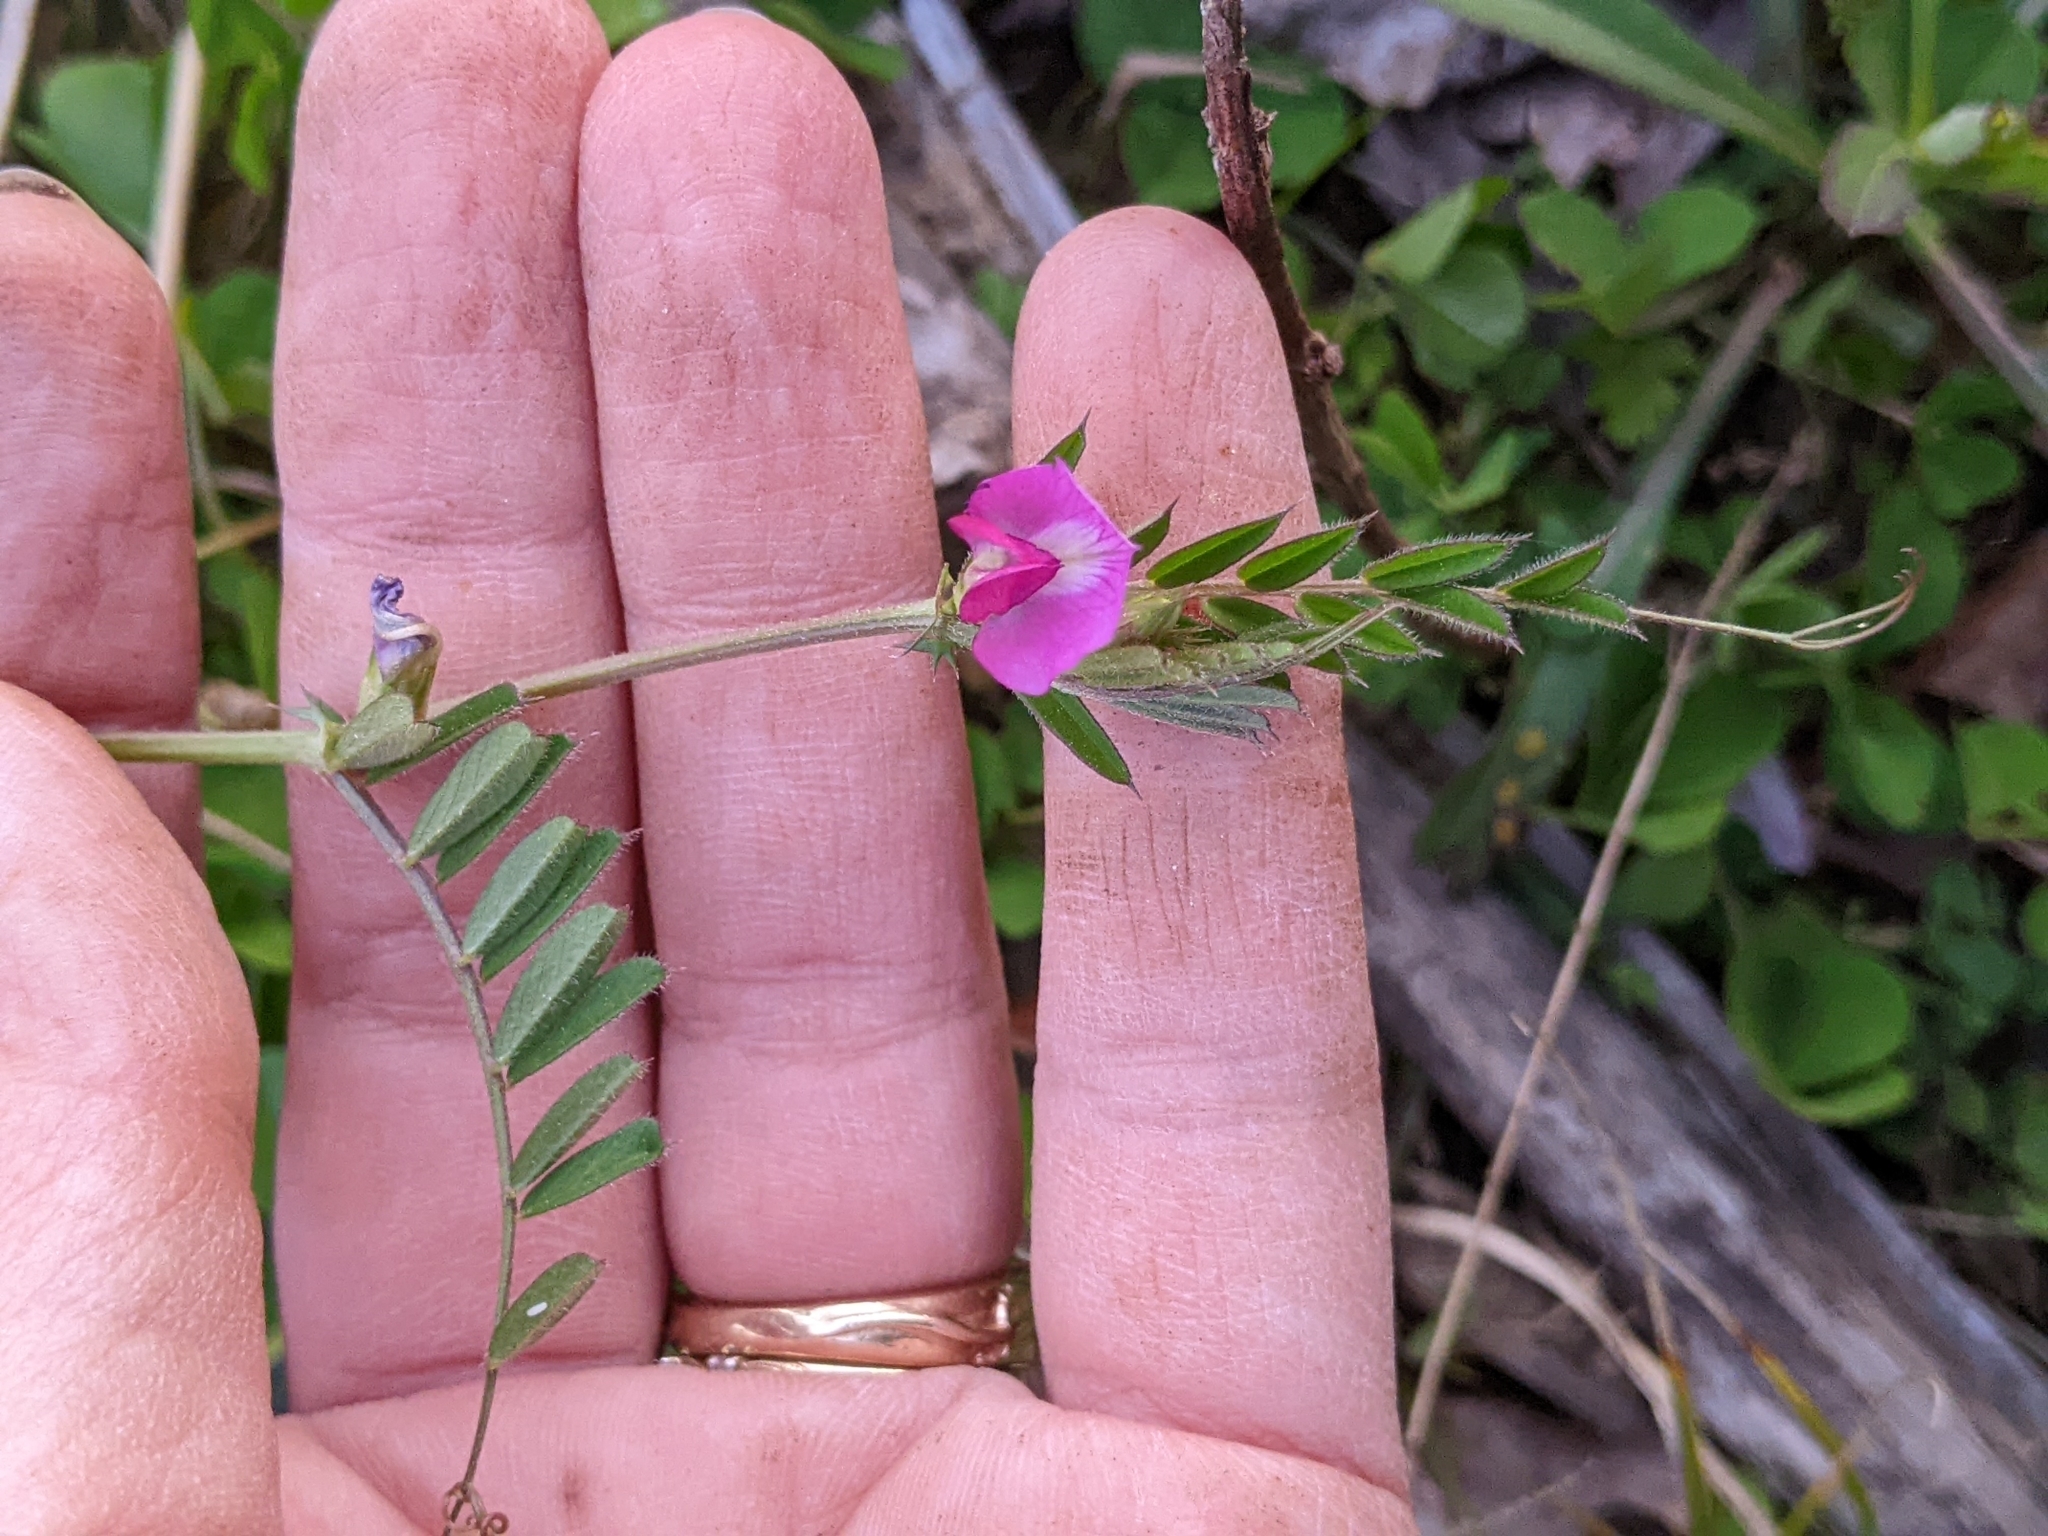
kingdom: Plantae
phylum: Tracheophyta
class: Magnoliopsida
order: Fabales
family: Fabaceae
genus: Vicia
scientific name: Vicia sativa
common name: Garden vetch
